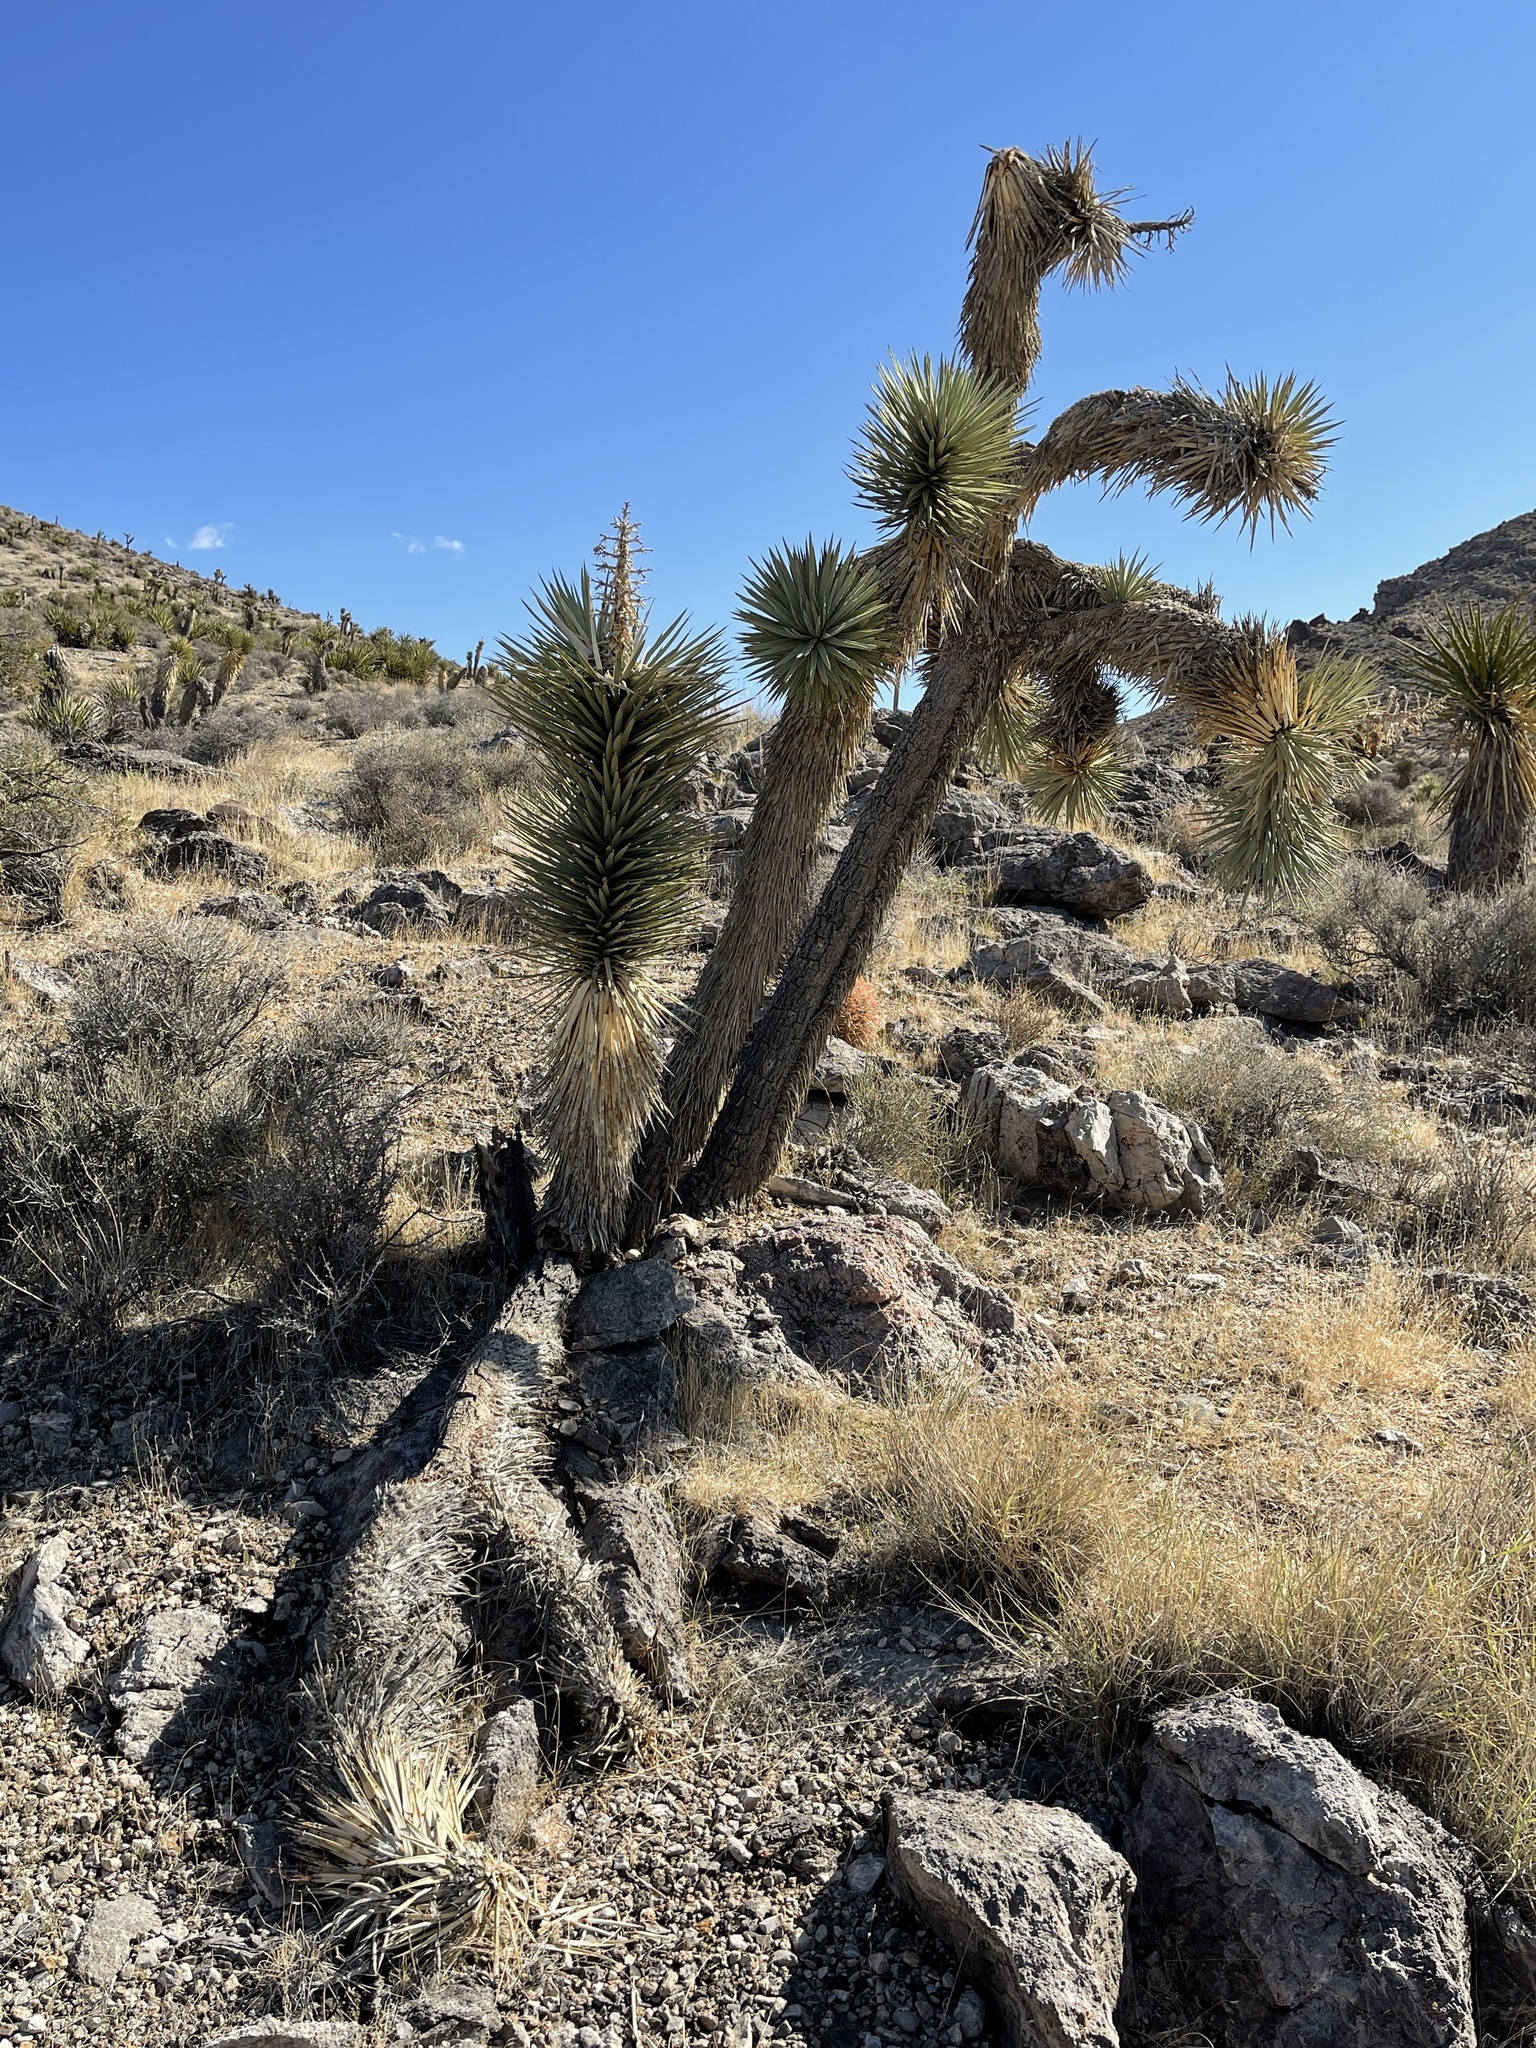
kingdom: Plantae
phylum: Tracheophyta
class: Liliopsida
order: Asparagales
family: Asparagaceae
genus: Yucca
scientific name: Yucca brevifolia
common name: Joshua tree
